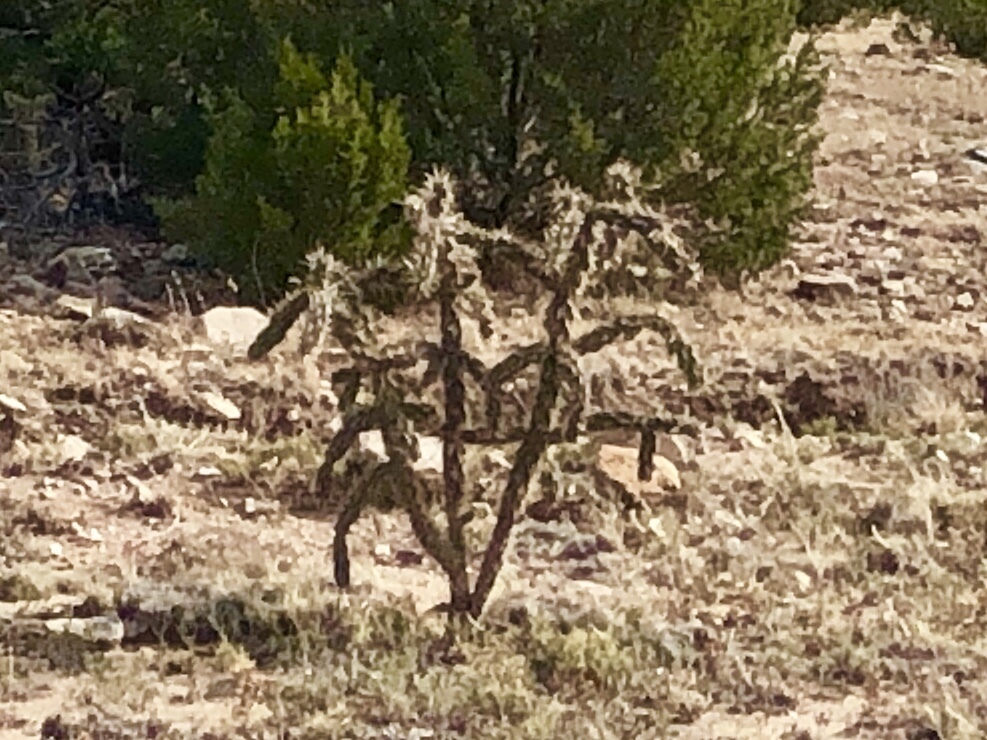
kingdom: Plantae
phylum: Tracheophyta
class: Magnoliopsida
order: Caryophyllales
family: Cactaceae
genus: Cylindropuntia
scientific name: Cylindropuntia imbricata
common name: Candelabrum cactus
